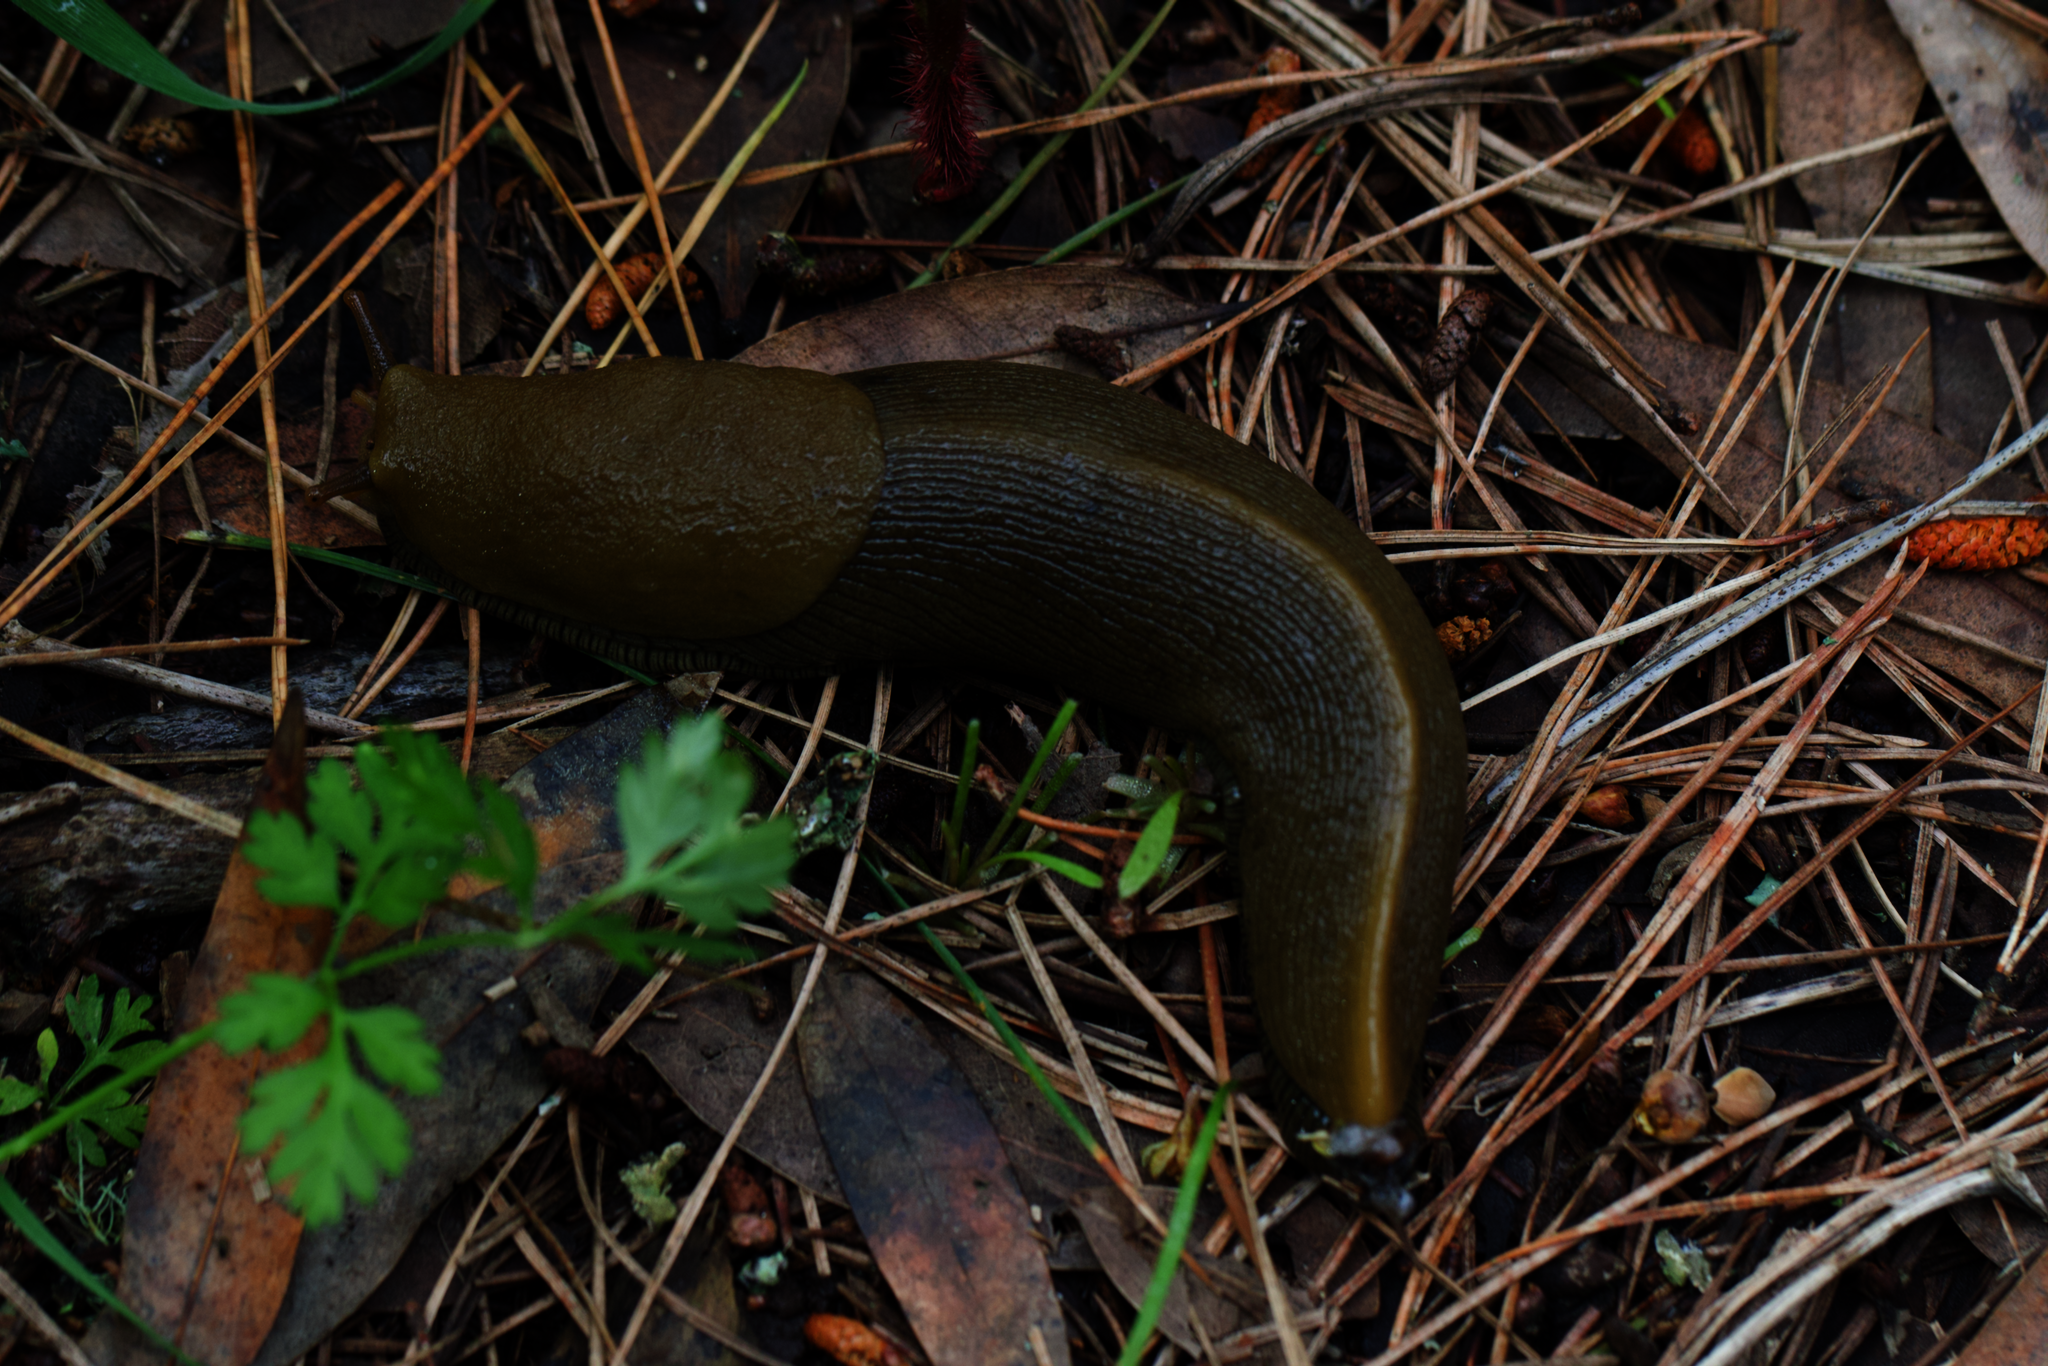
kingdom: Animalia
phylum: Mollusca
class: Gastropoda
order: Stylommatophora
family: Ariolimacidae
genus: Ariolimax
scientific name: Ariolimax buttoni
